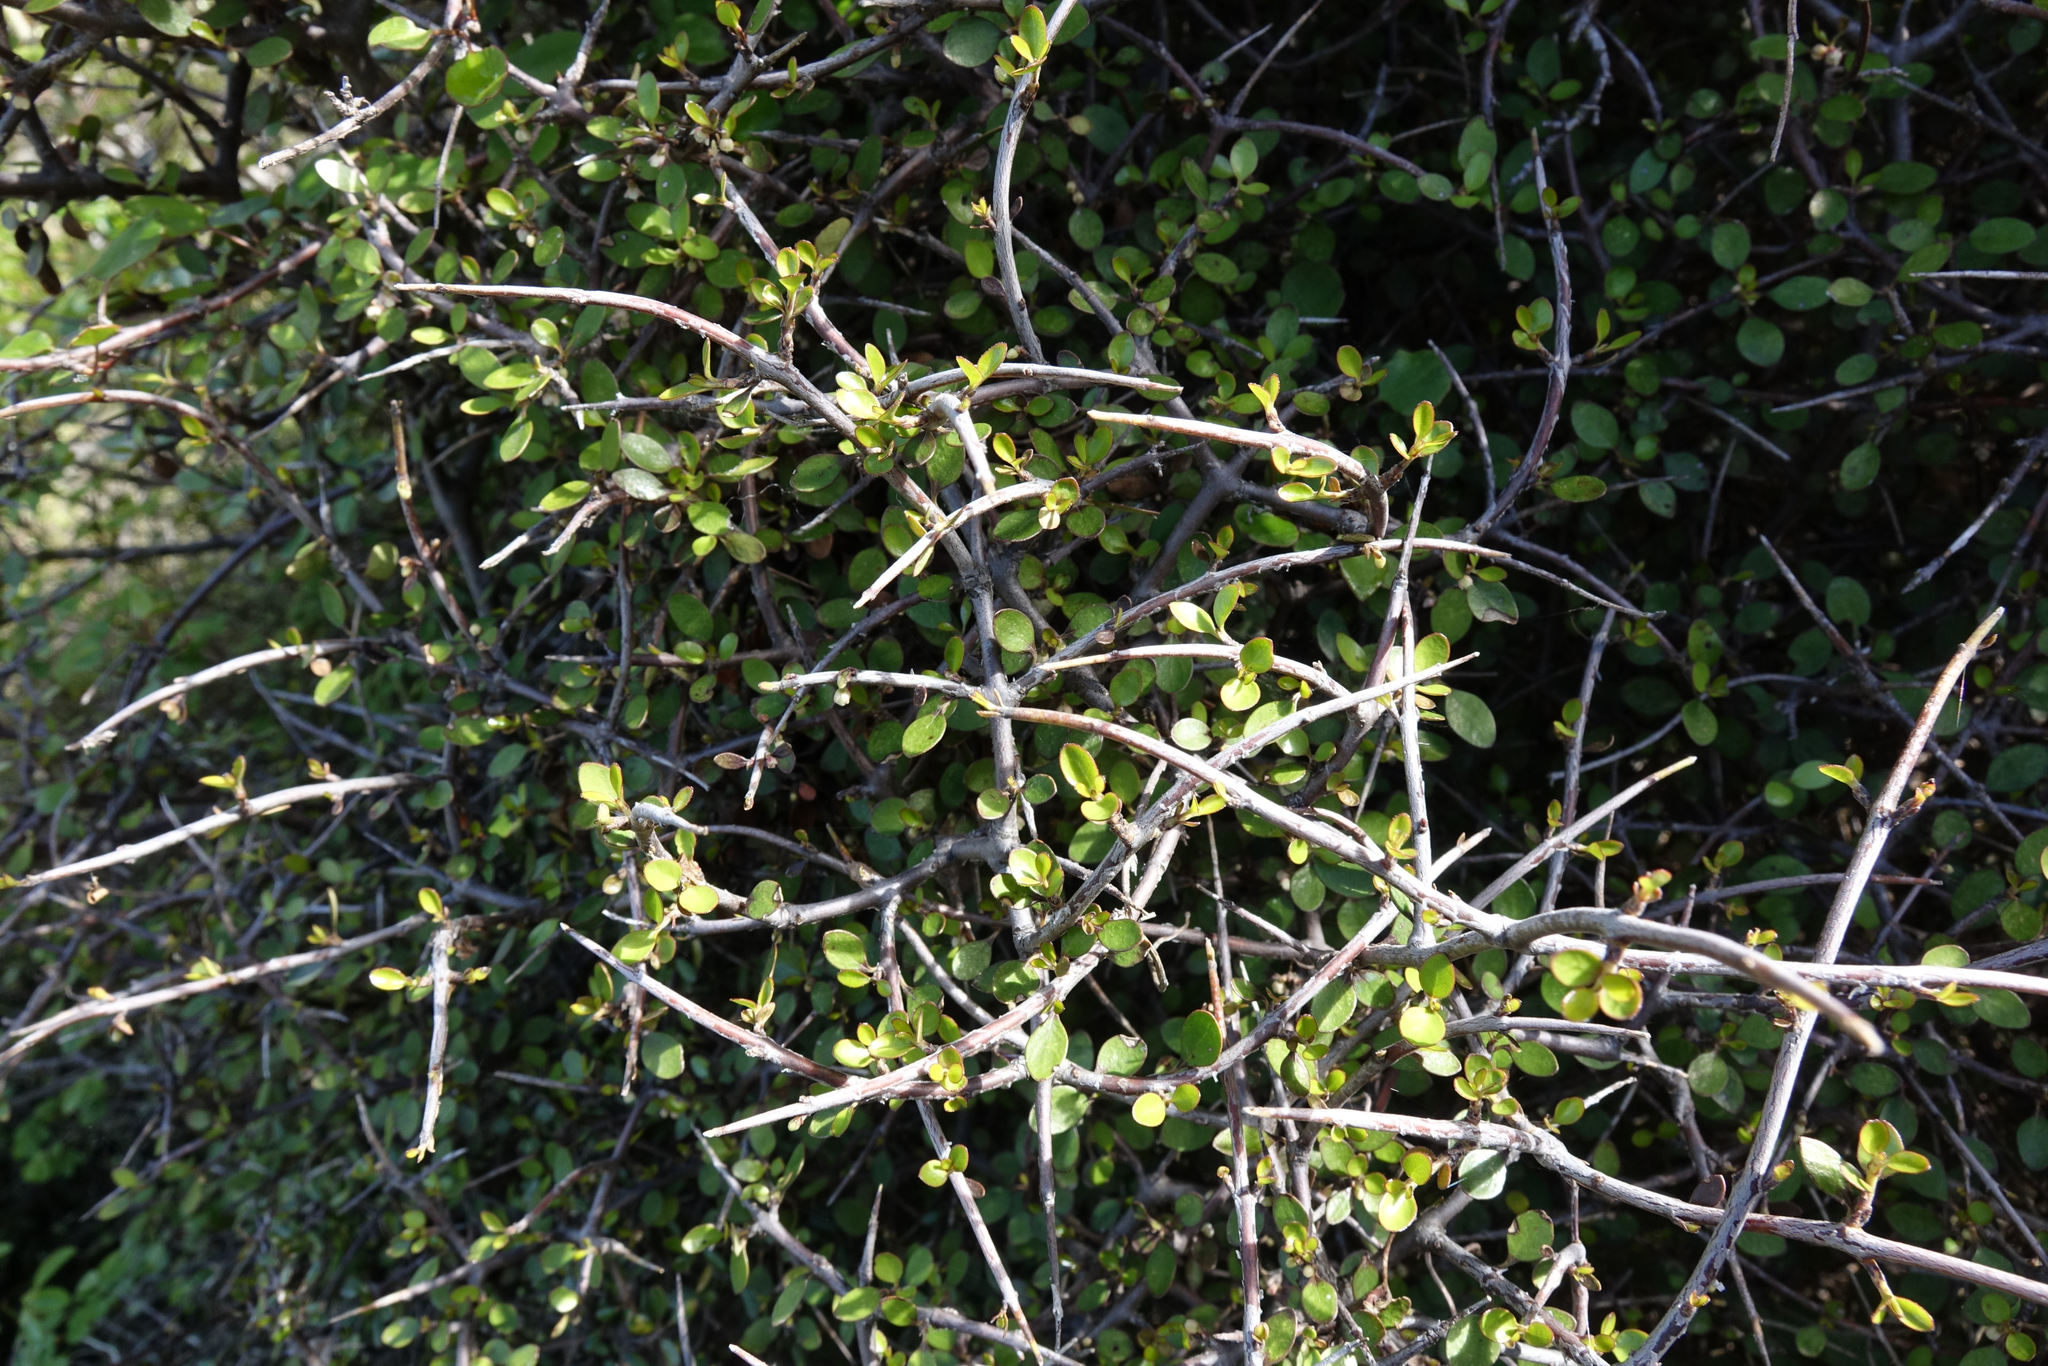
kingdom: Plantae
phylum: Tracheophyta
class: Magnoliopsida
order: Oxalidales
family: Elaeocarpaceae
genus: Aristotelia
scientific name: Aristotelia fruticosa
